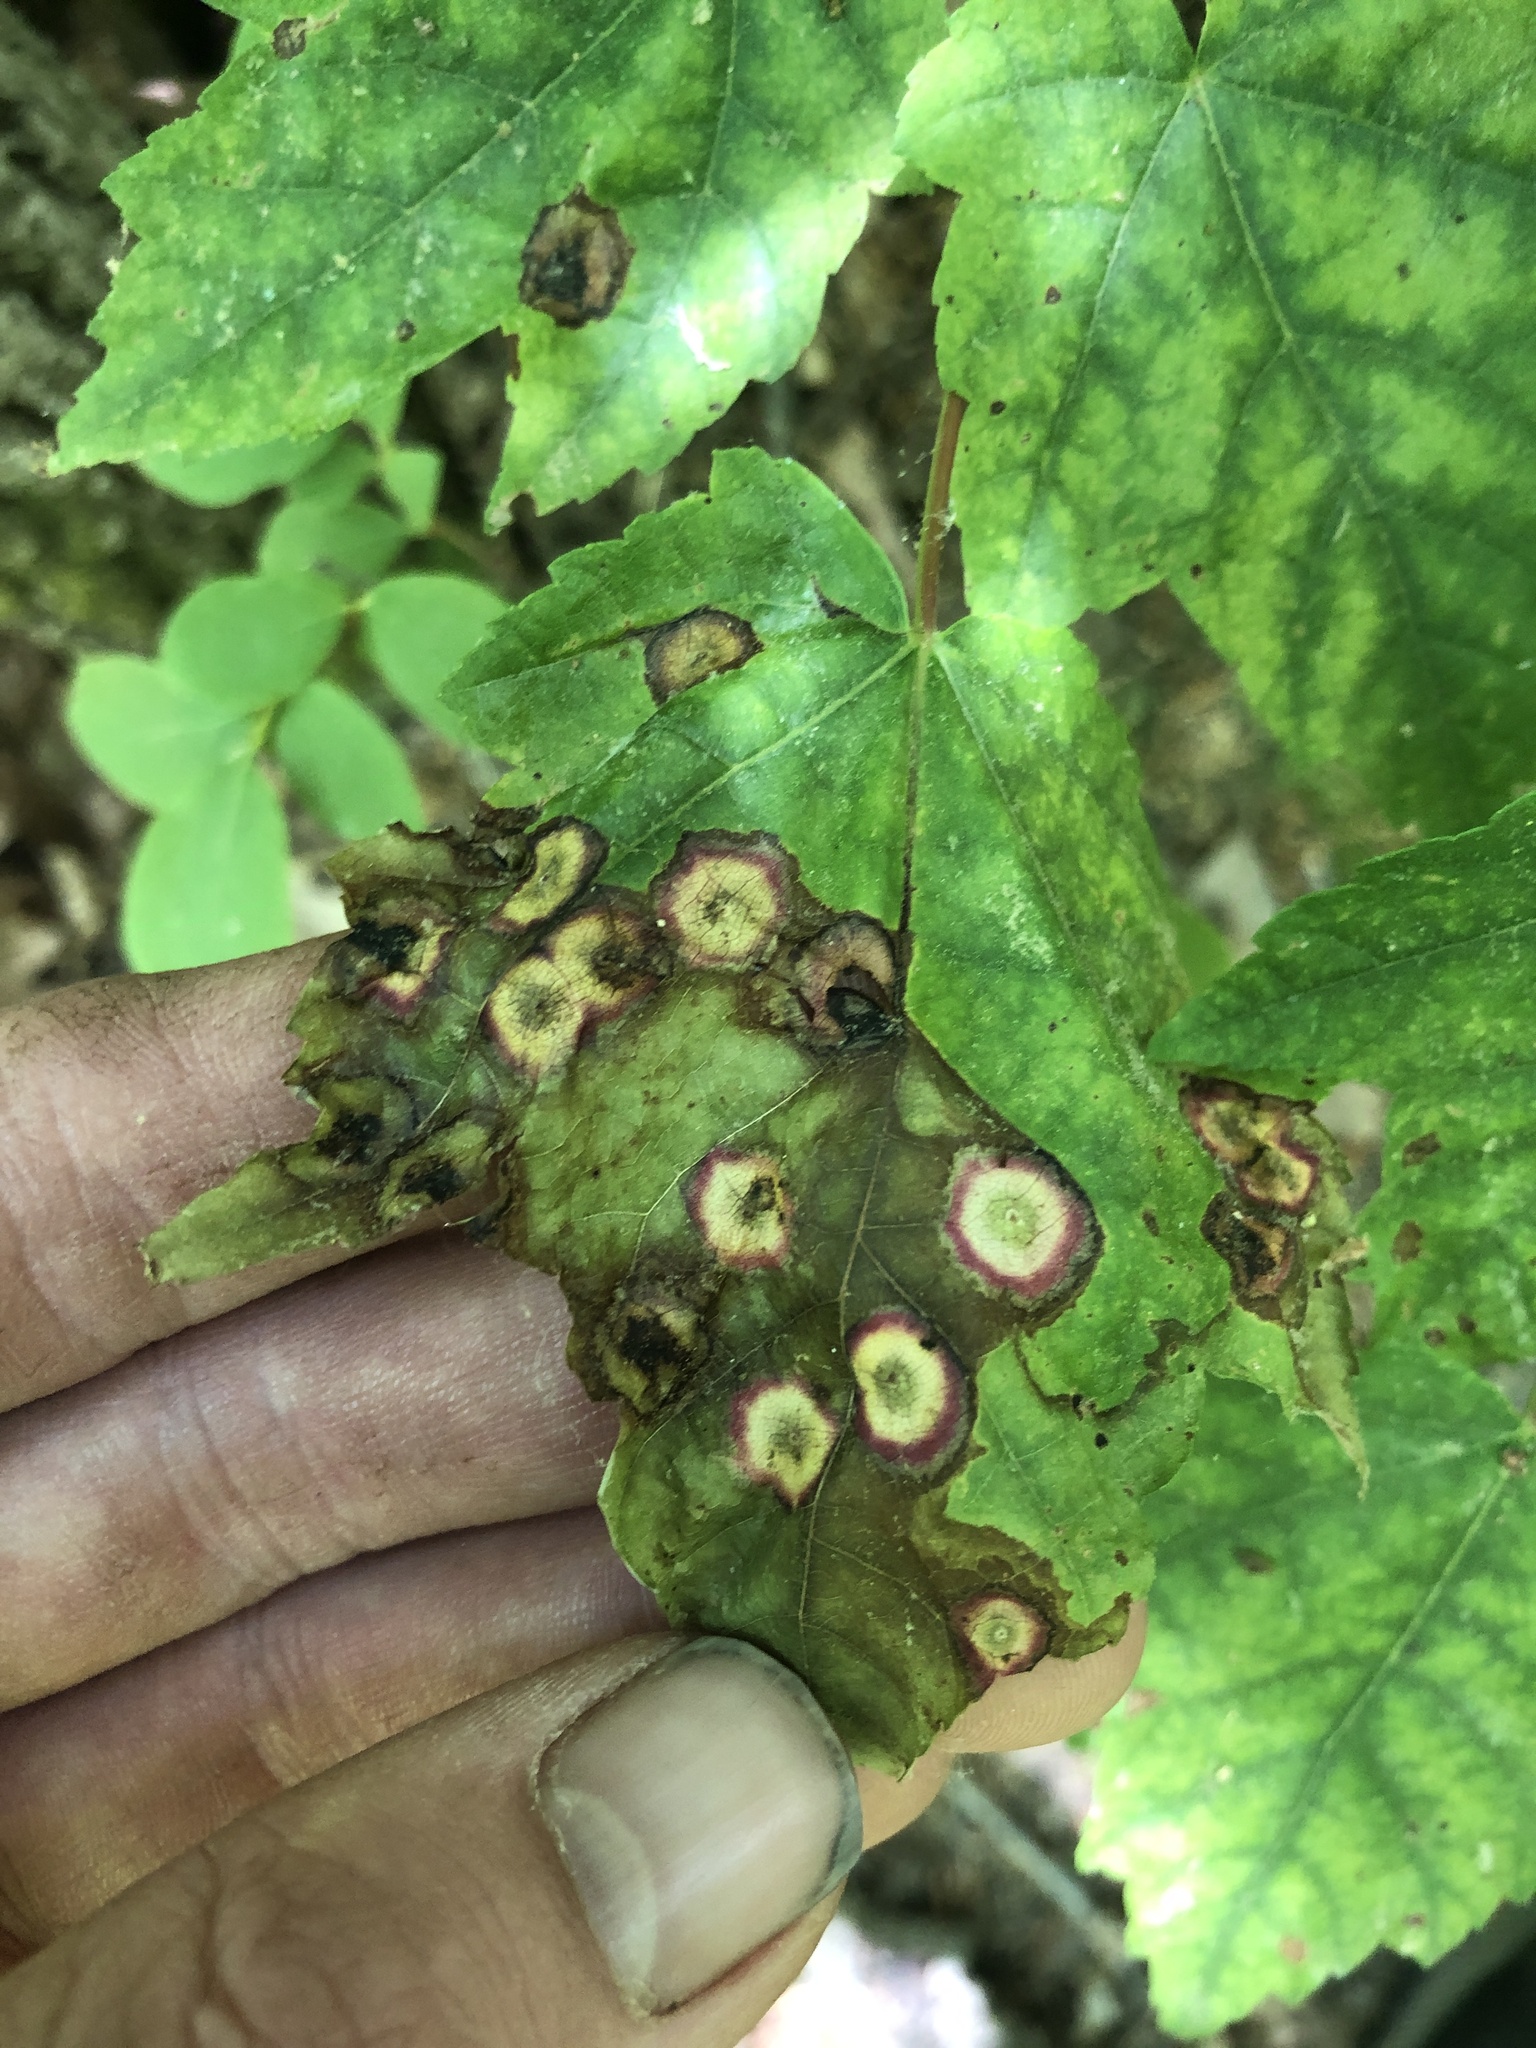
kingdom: Animalia
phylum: Arthropoda
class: Insecta
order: Diptera
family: Cecidomyiidae
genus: Acericecis
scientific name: Acericecis ocellaris
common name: Ocellate gall midge
